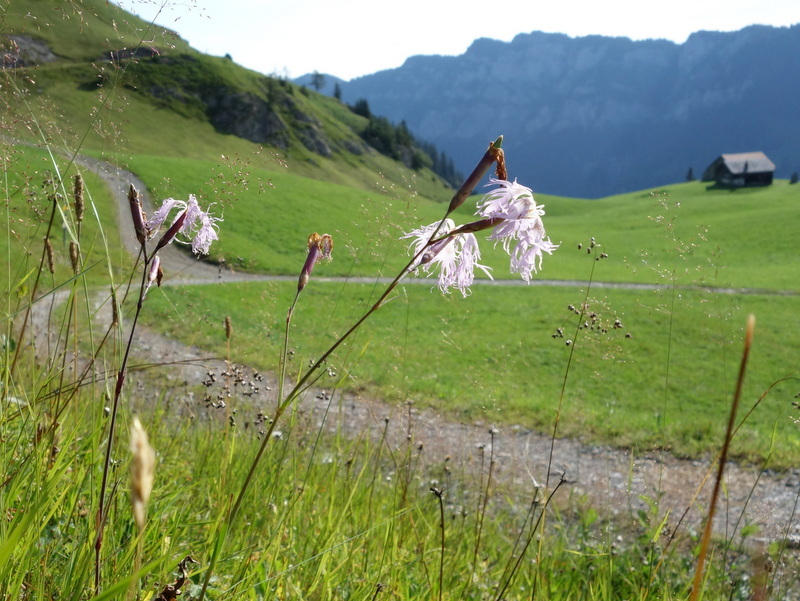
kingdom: Plantae
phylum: Tracheophyta
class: Magnoliopsida
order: Caryophyllales
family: Caryophyllaceae
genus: Dianthus
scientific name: Dianthus superbus
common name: Fringed pink
